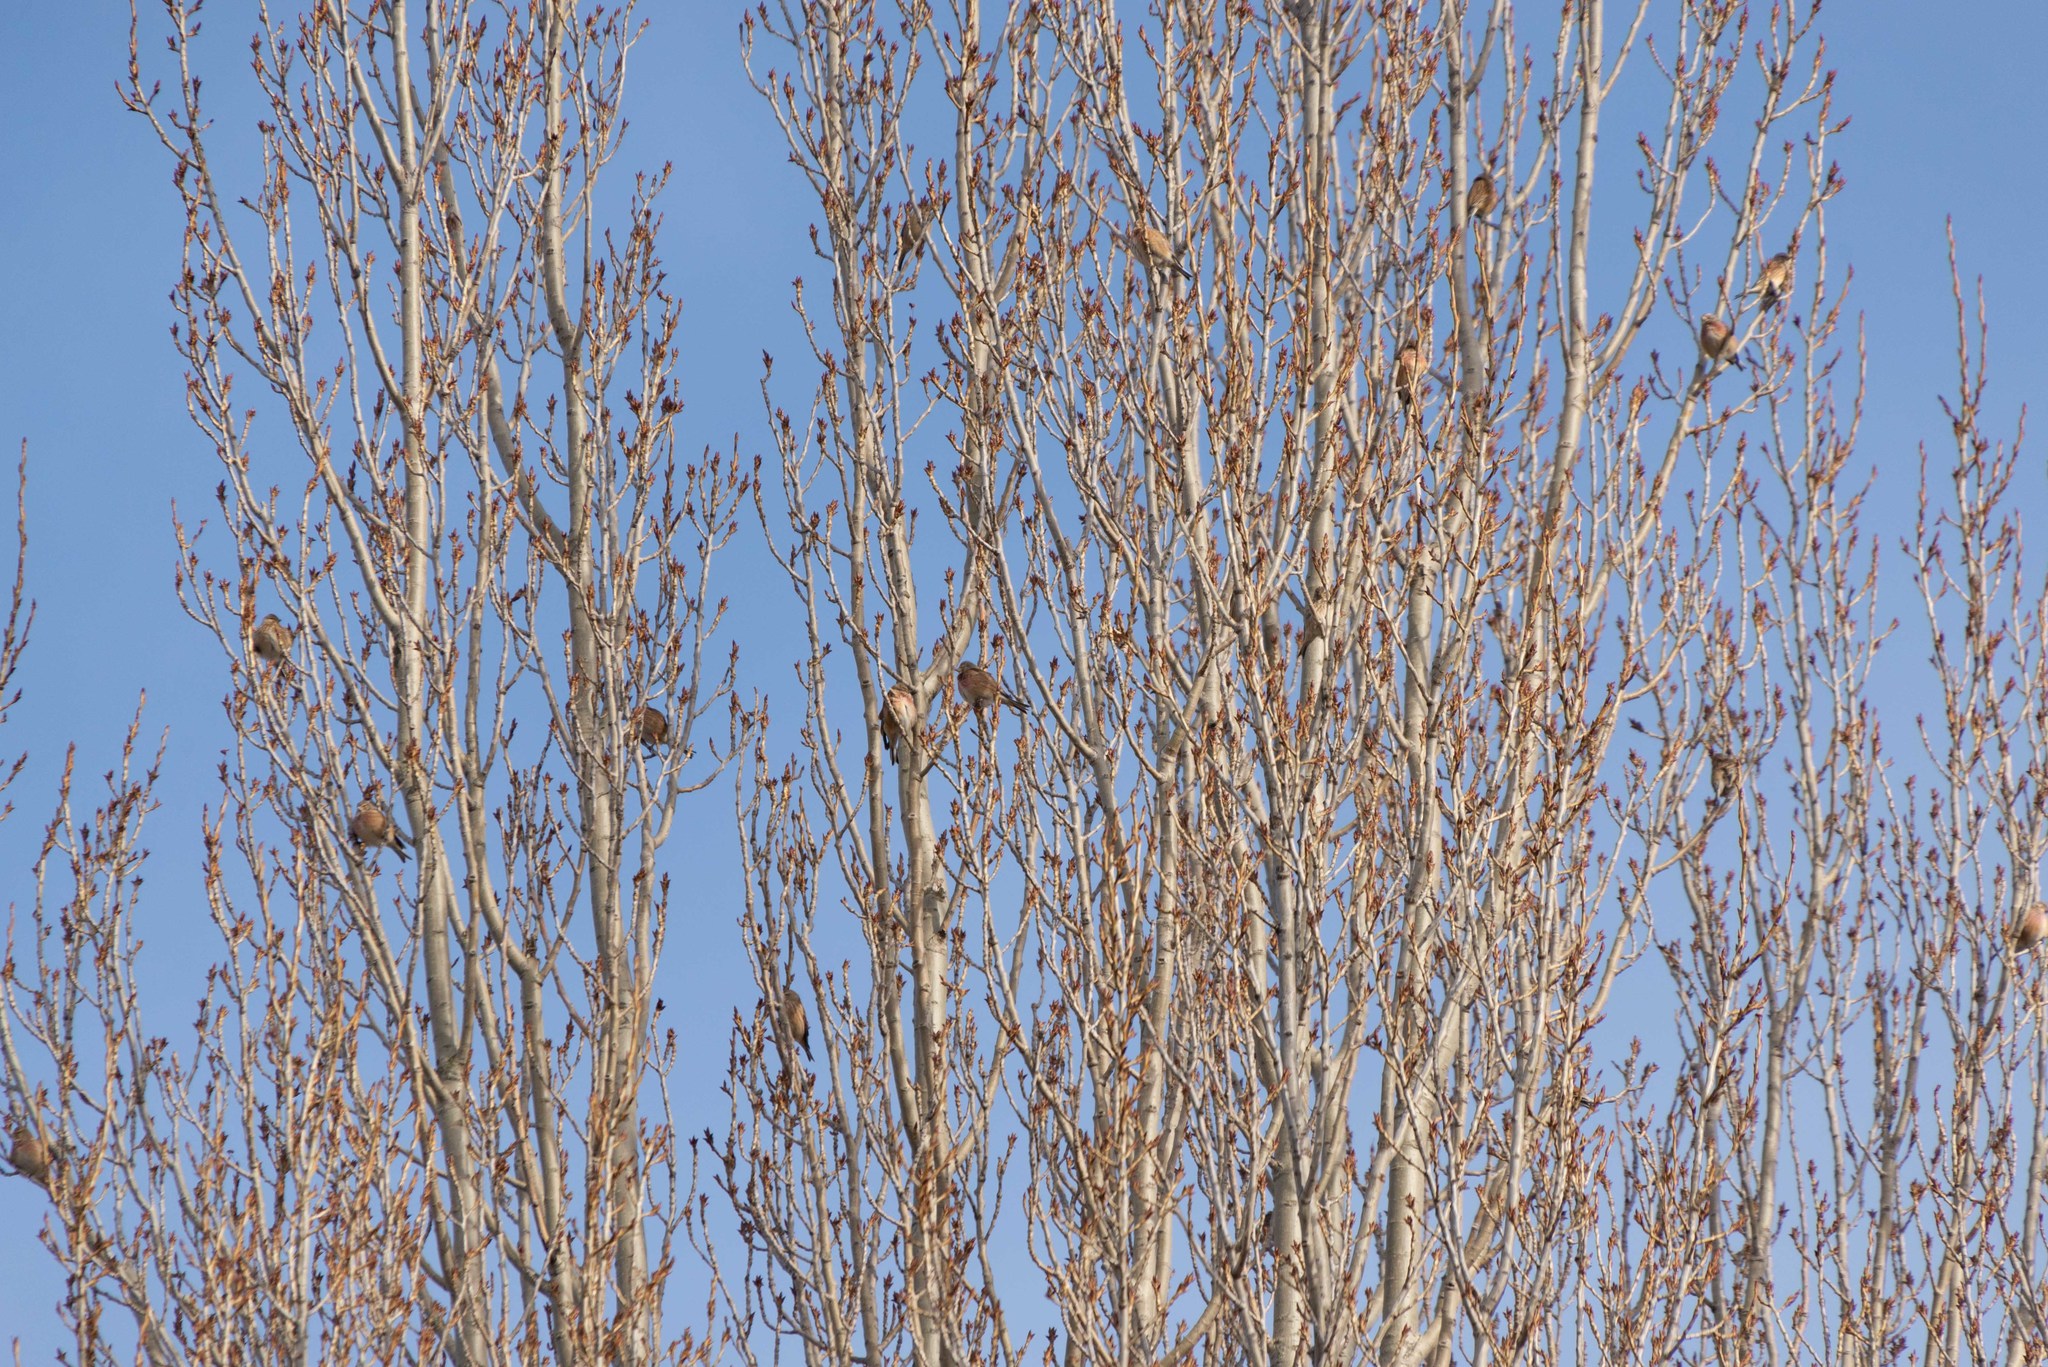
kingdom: Animalia
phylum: Chordata
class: Aves
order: Passeriformes
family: Fringillidae
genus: Linaria
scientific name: Linaria cannabina
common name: Common linnet
